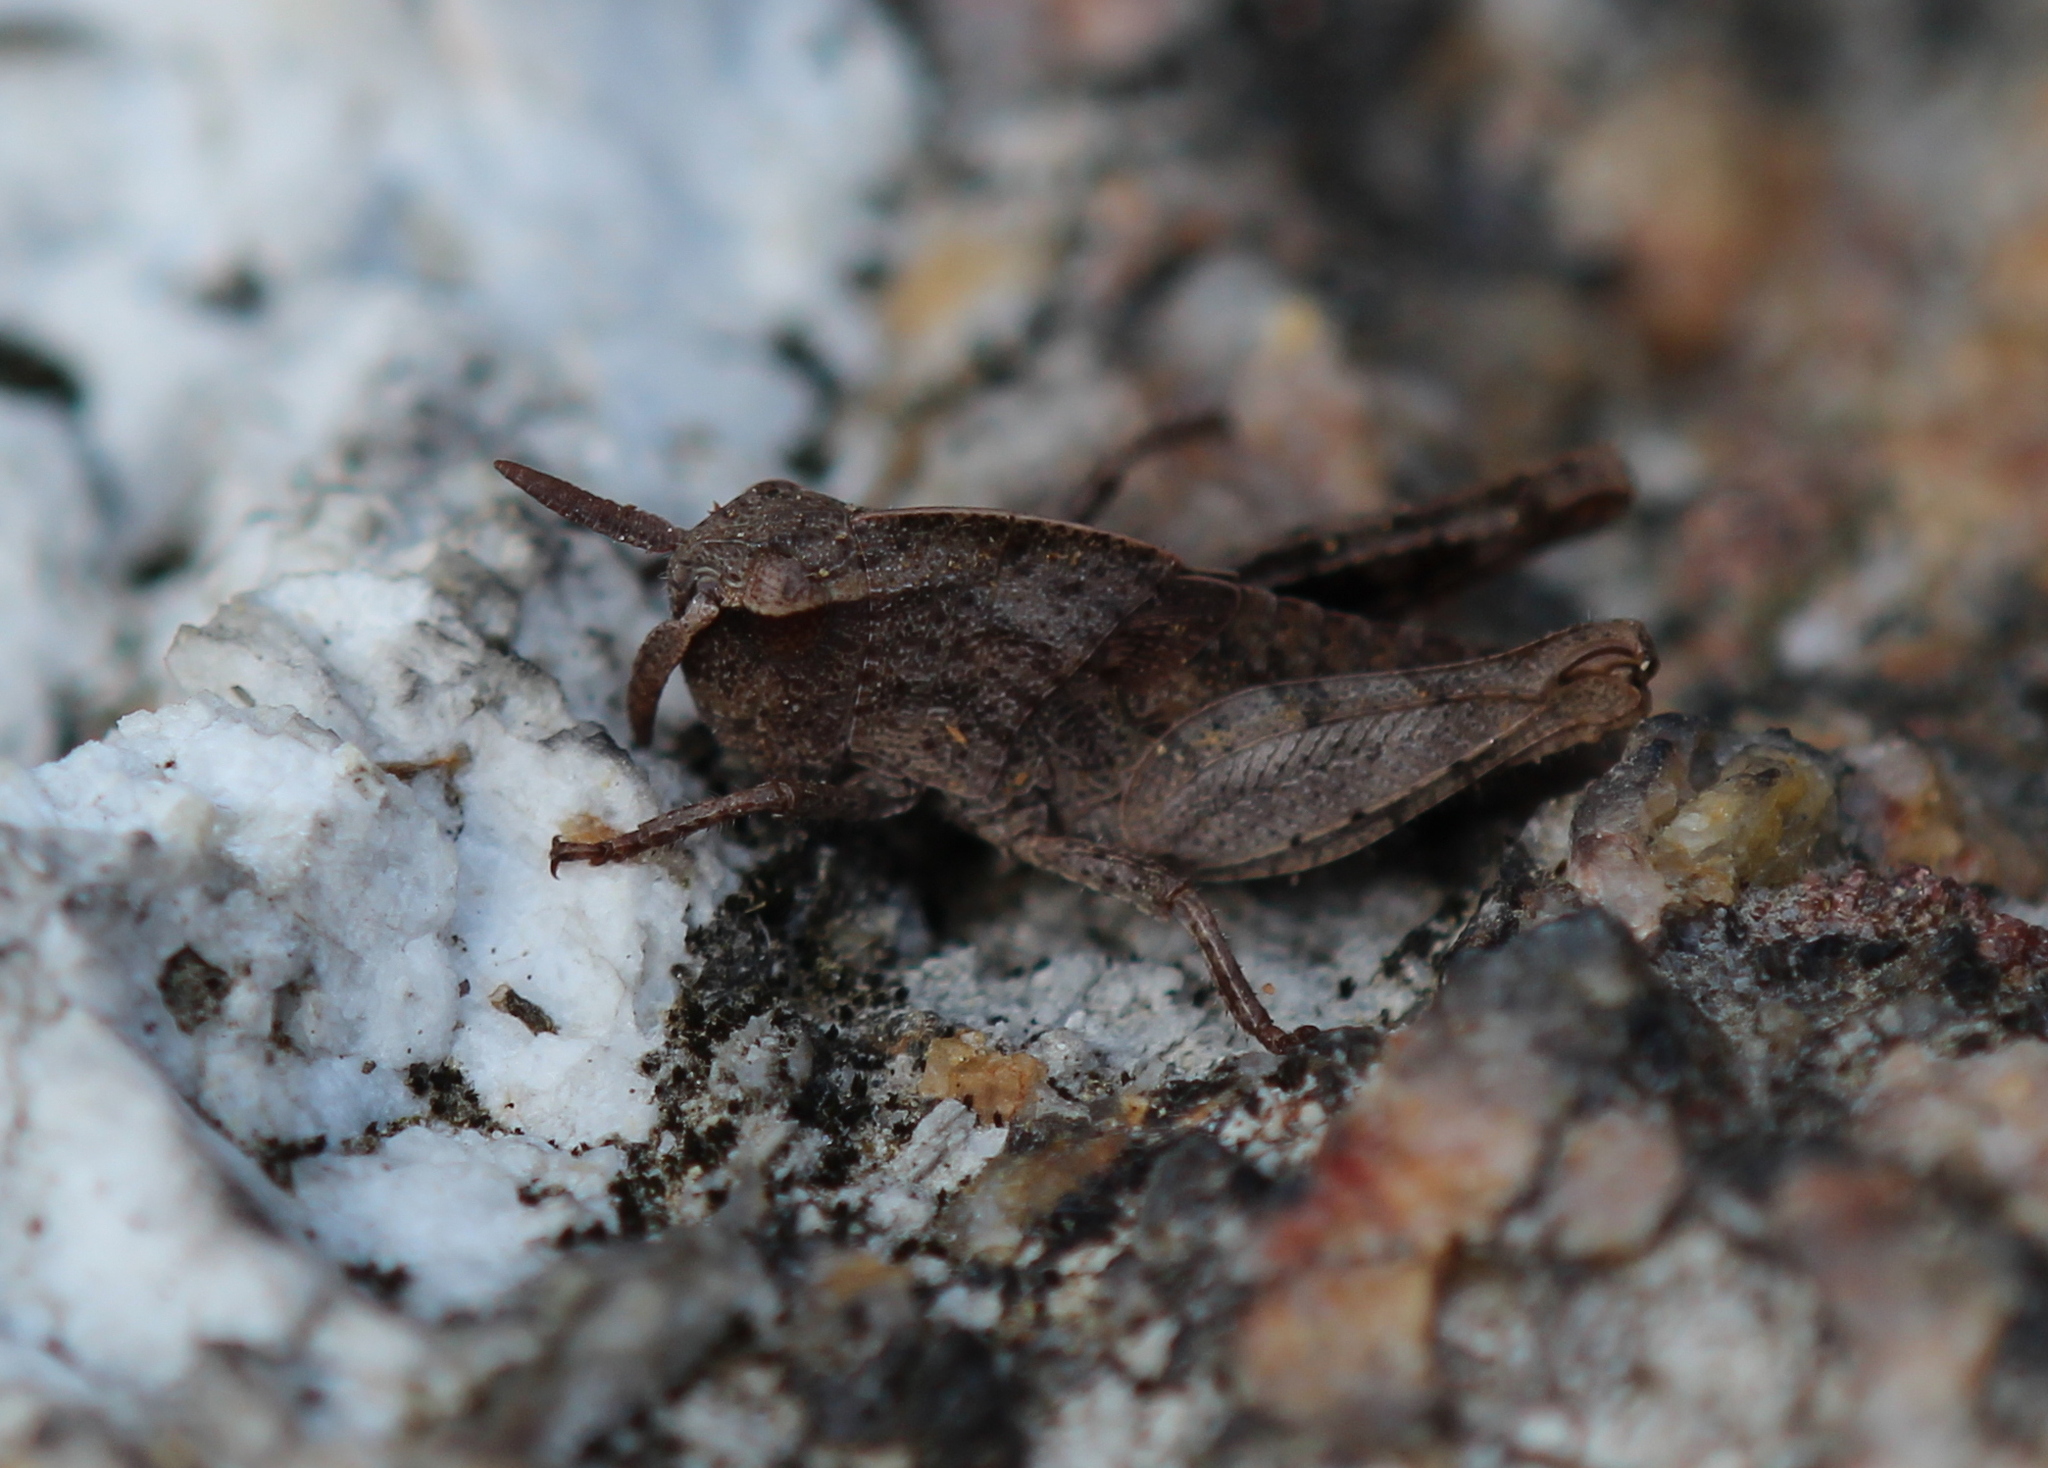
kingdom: Animalia
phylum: Arthropoda
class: Insecta
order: Orthoptera
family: Acrididae
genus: Chortophaga
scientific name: Chortophaga viridifasciata
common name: Green-striped grasshopper
